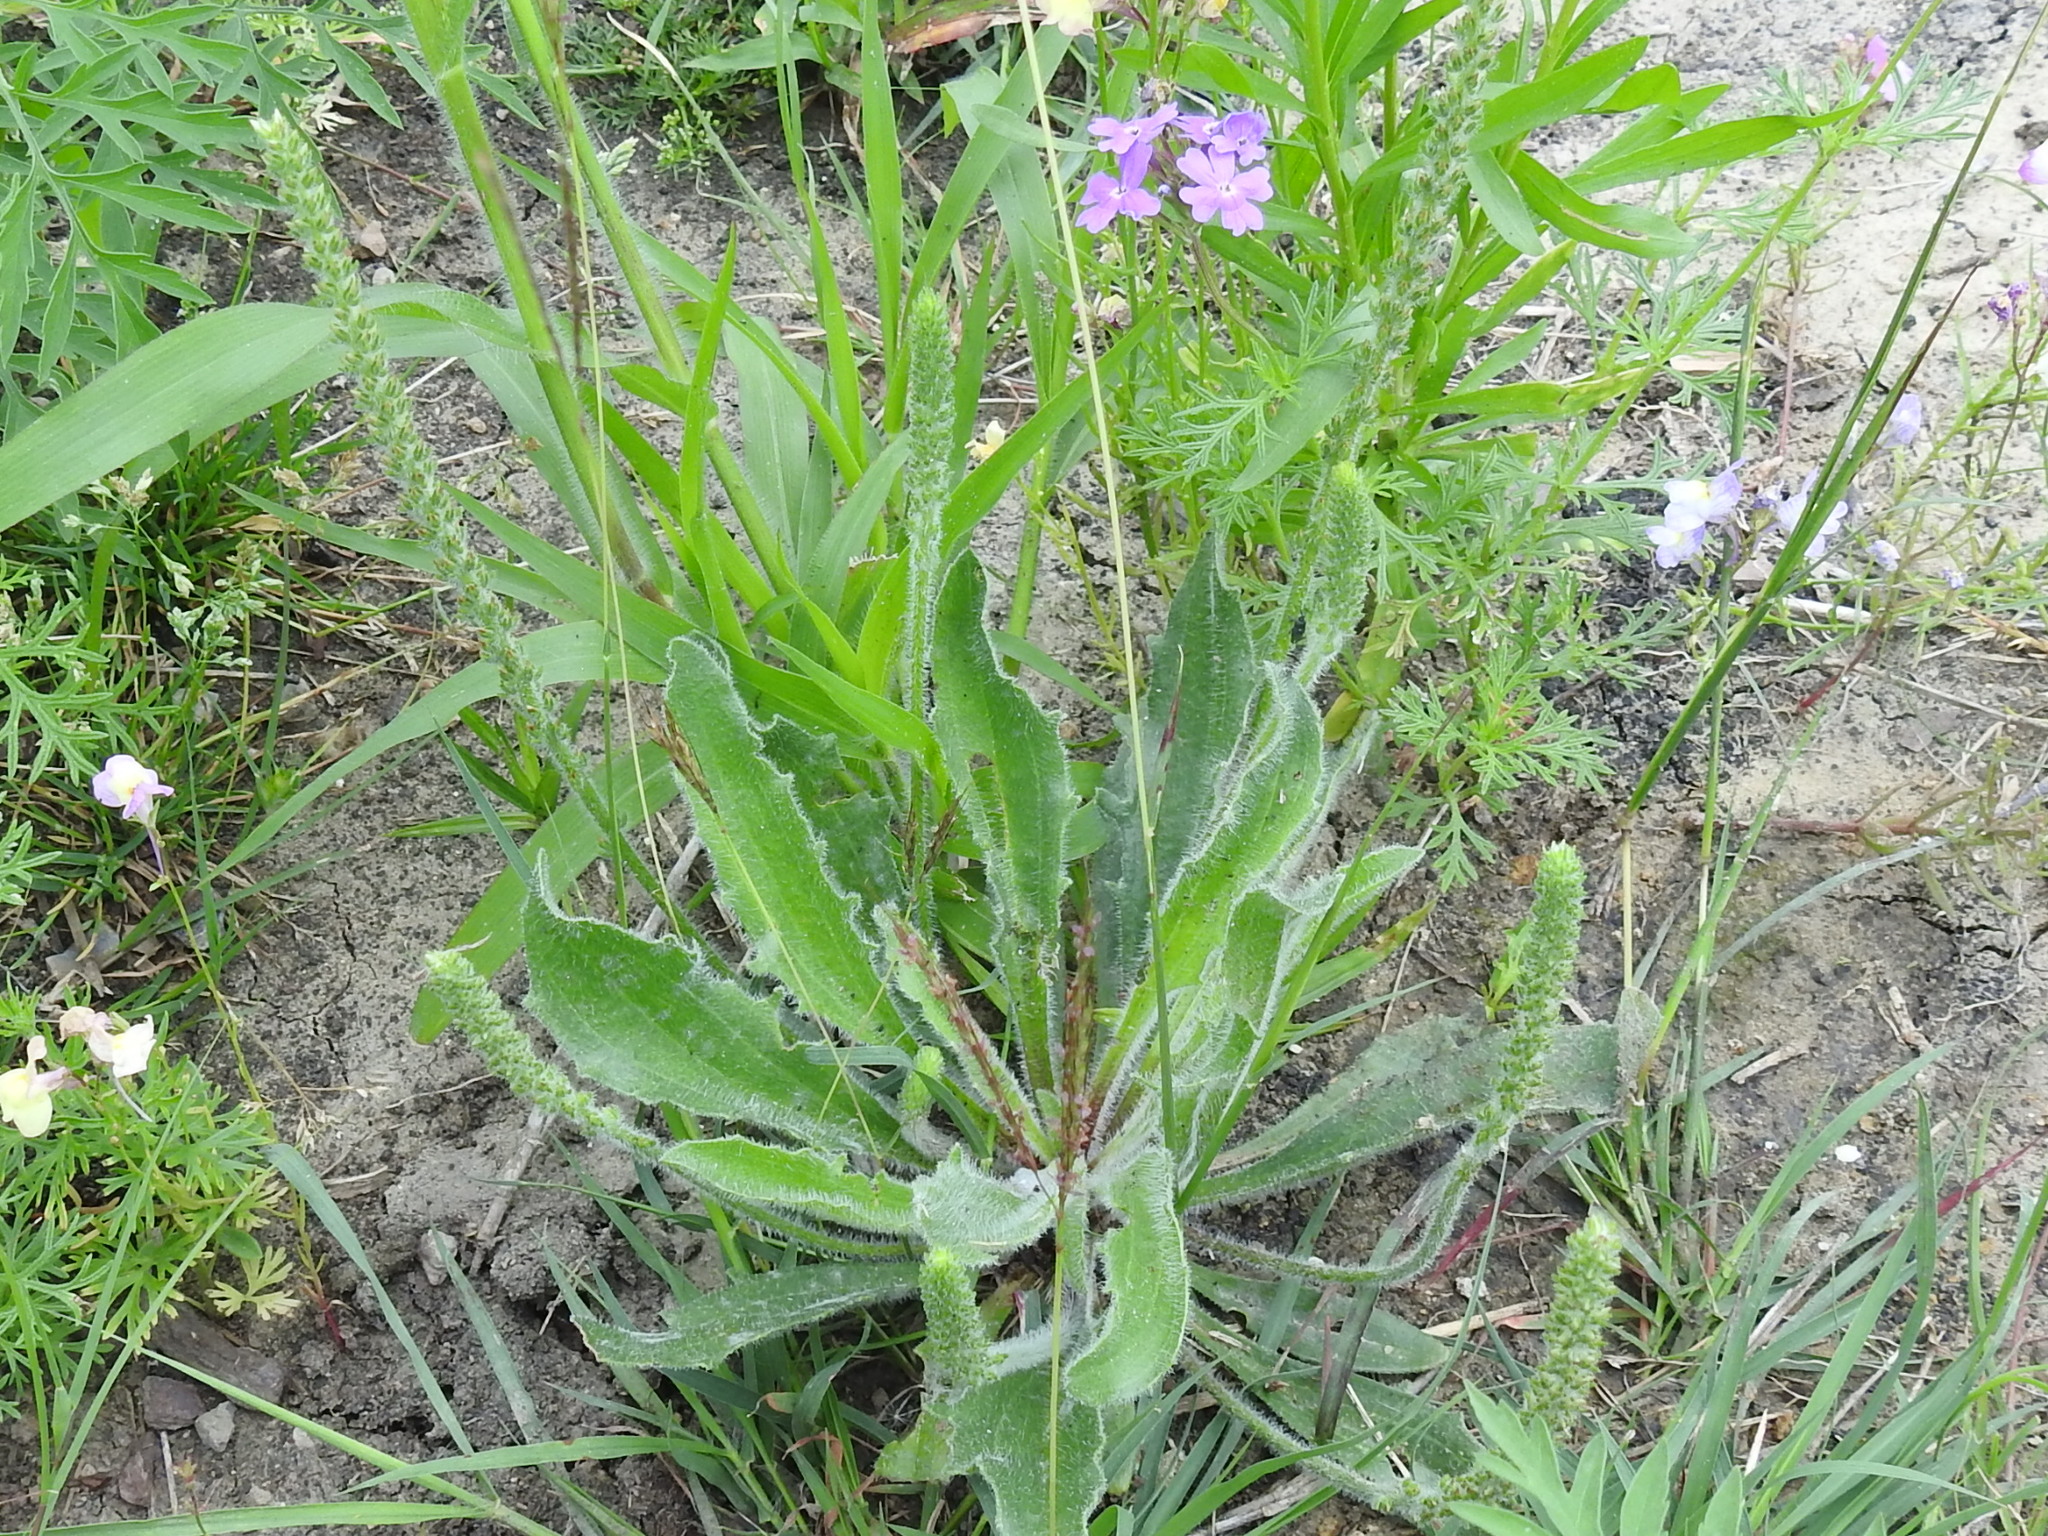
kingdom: Plantae
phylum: Tracheophyta
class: Magnoliopsida
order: Lamiales
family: Plantaginaceae
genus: Plantago
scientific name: Plantago rhodosperma
